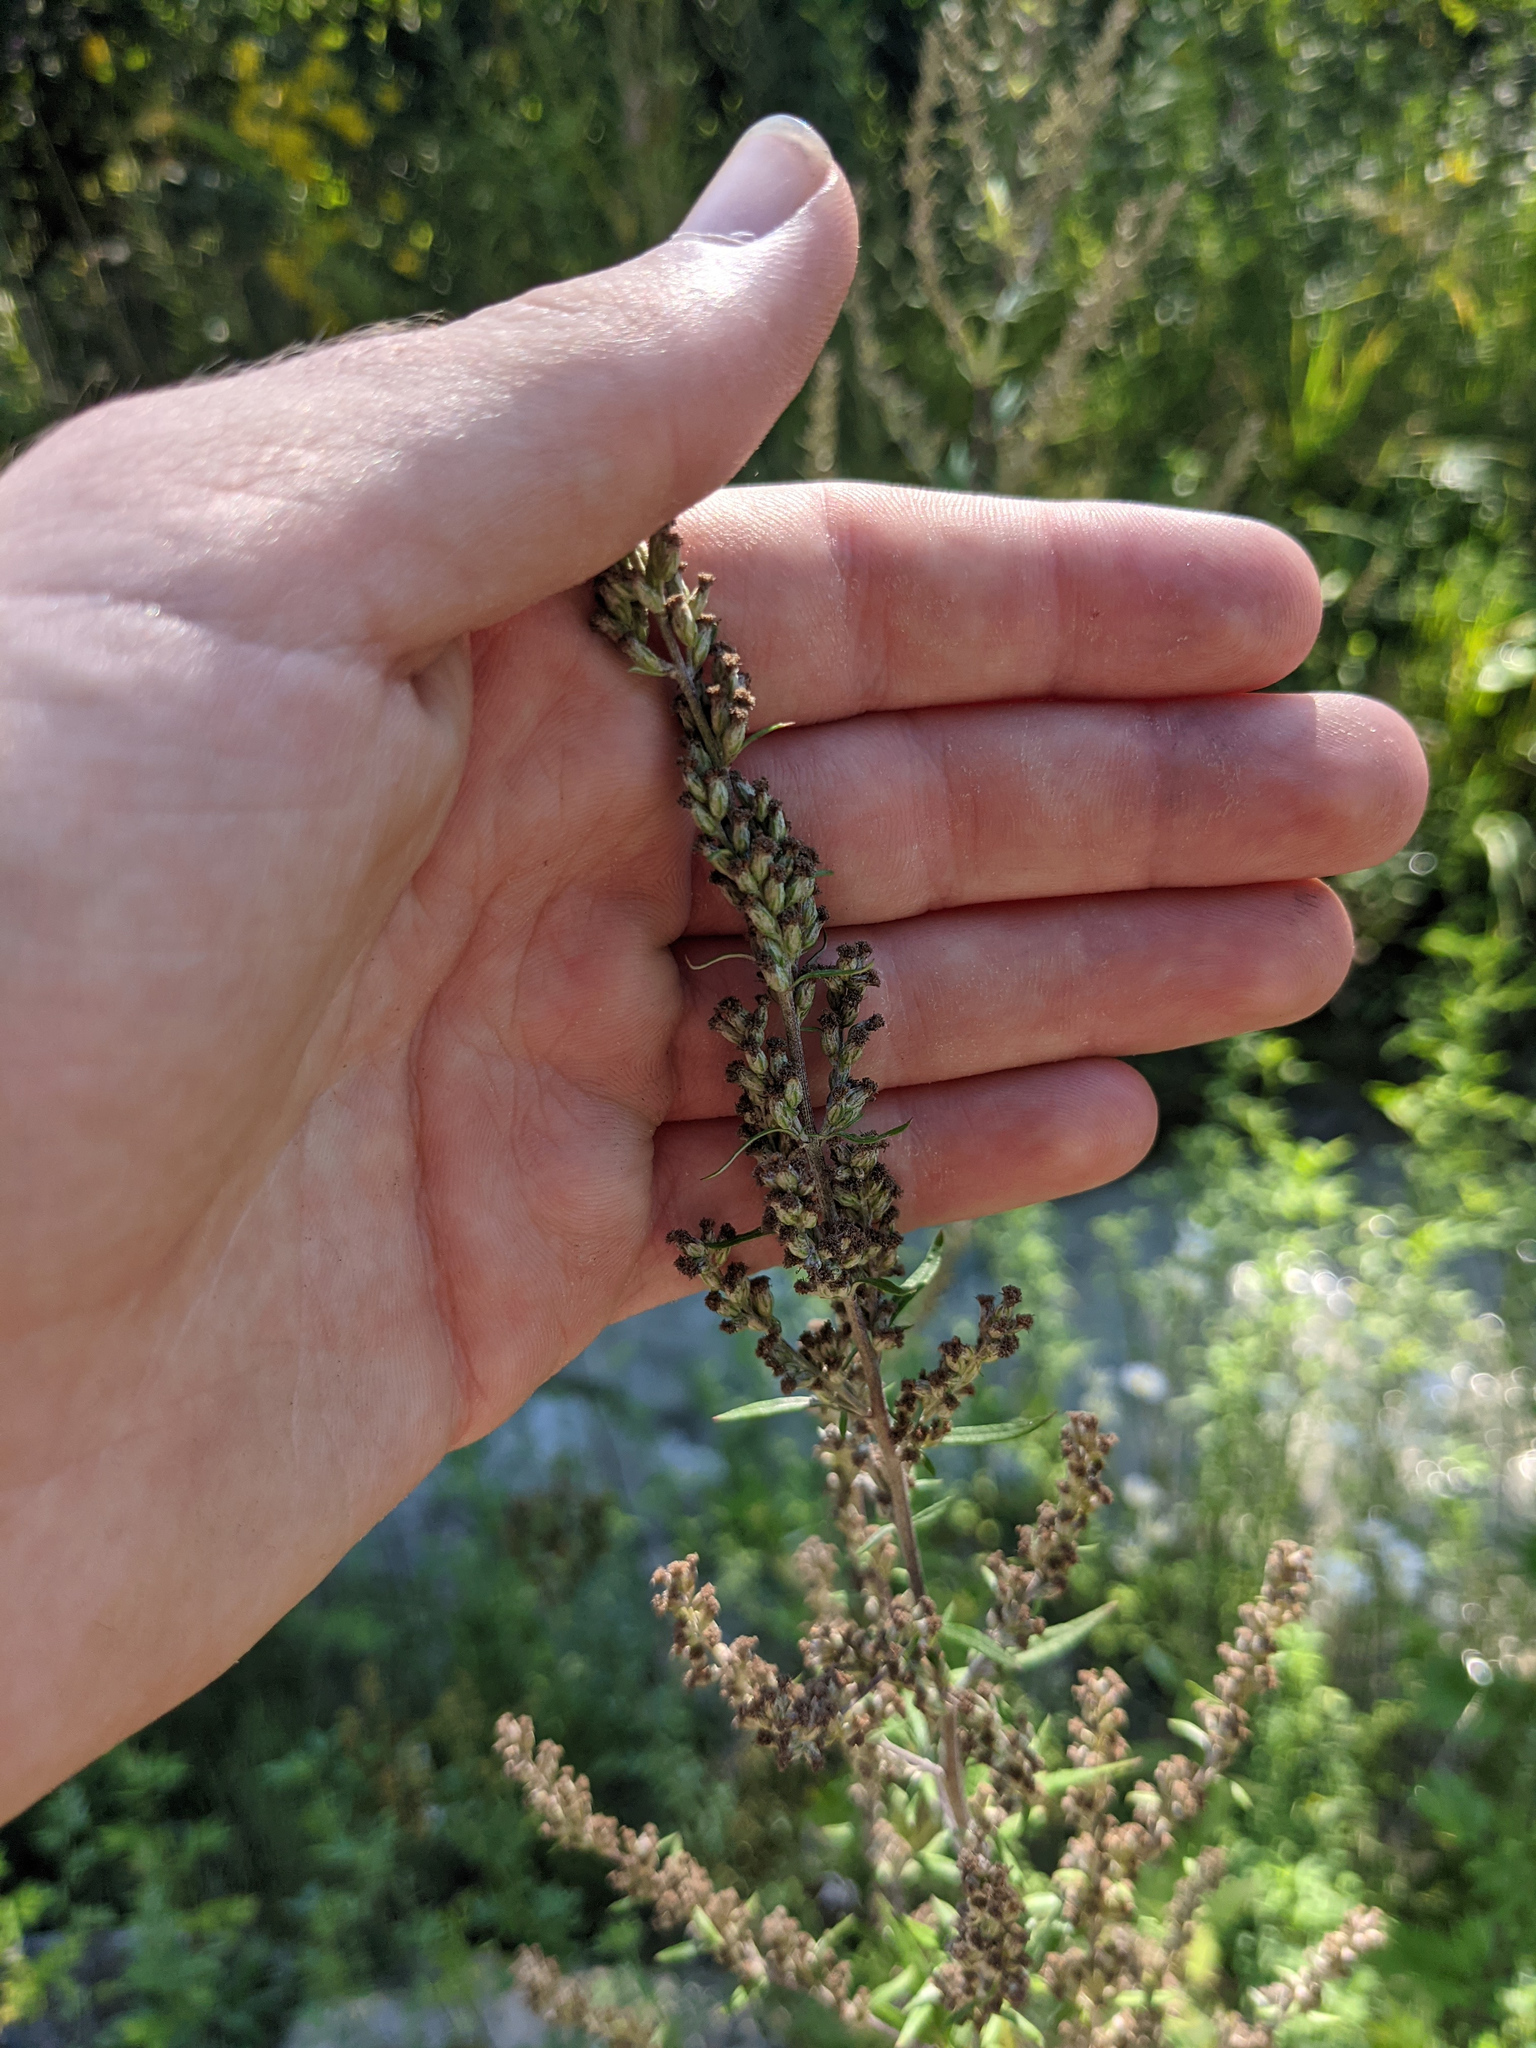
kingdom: Plantae
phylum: Tracheophyta
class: Magnoliopsida
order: Asterales
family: Asteraceae
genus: Artemisia
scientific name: Artemisia vulgaris
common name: Mugwort
